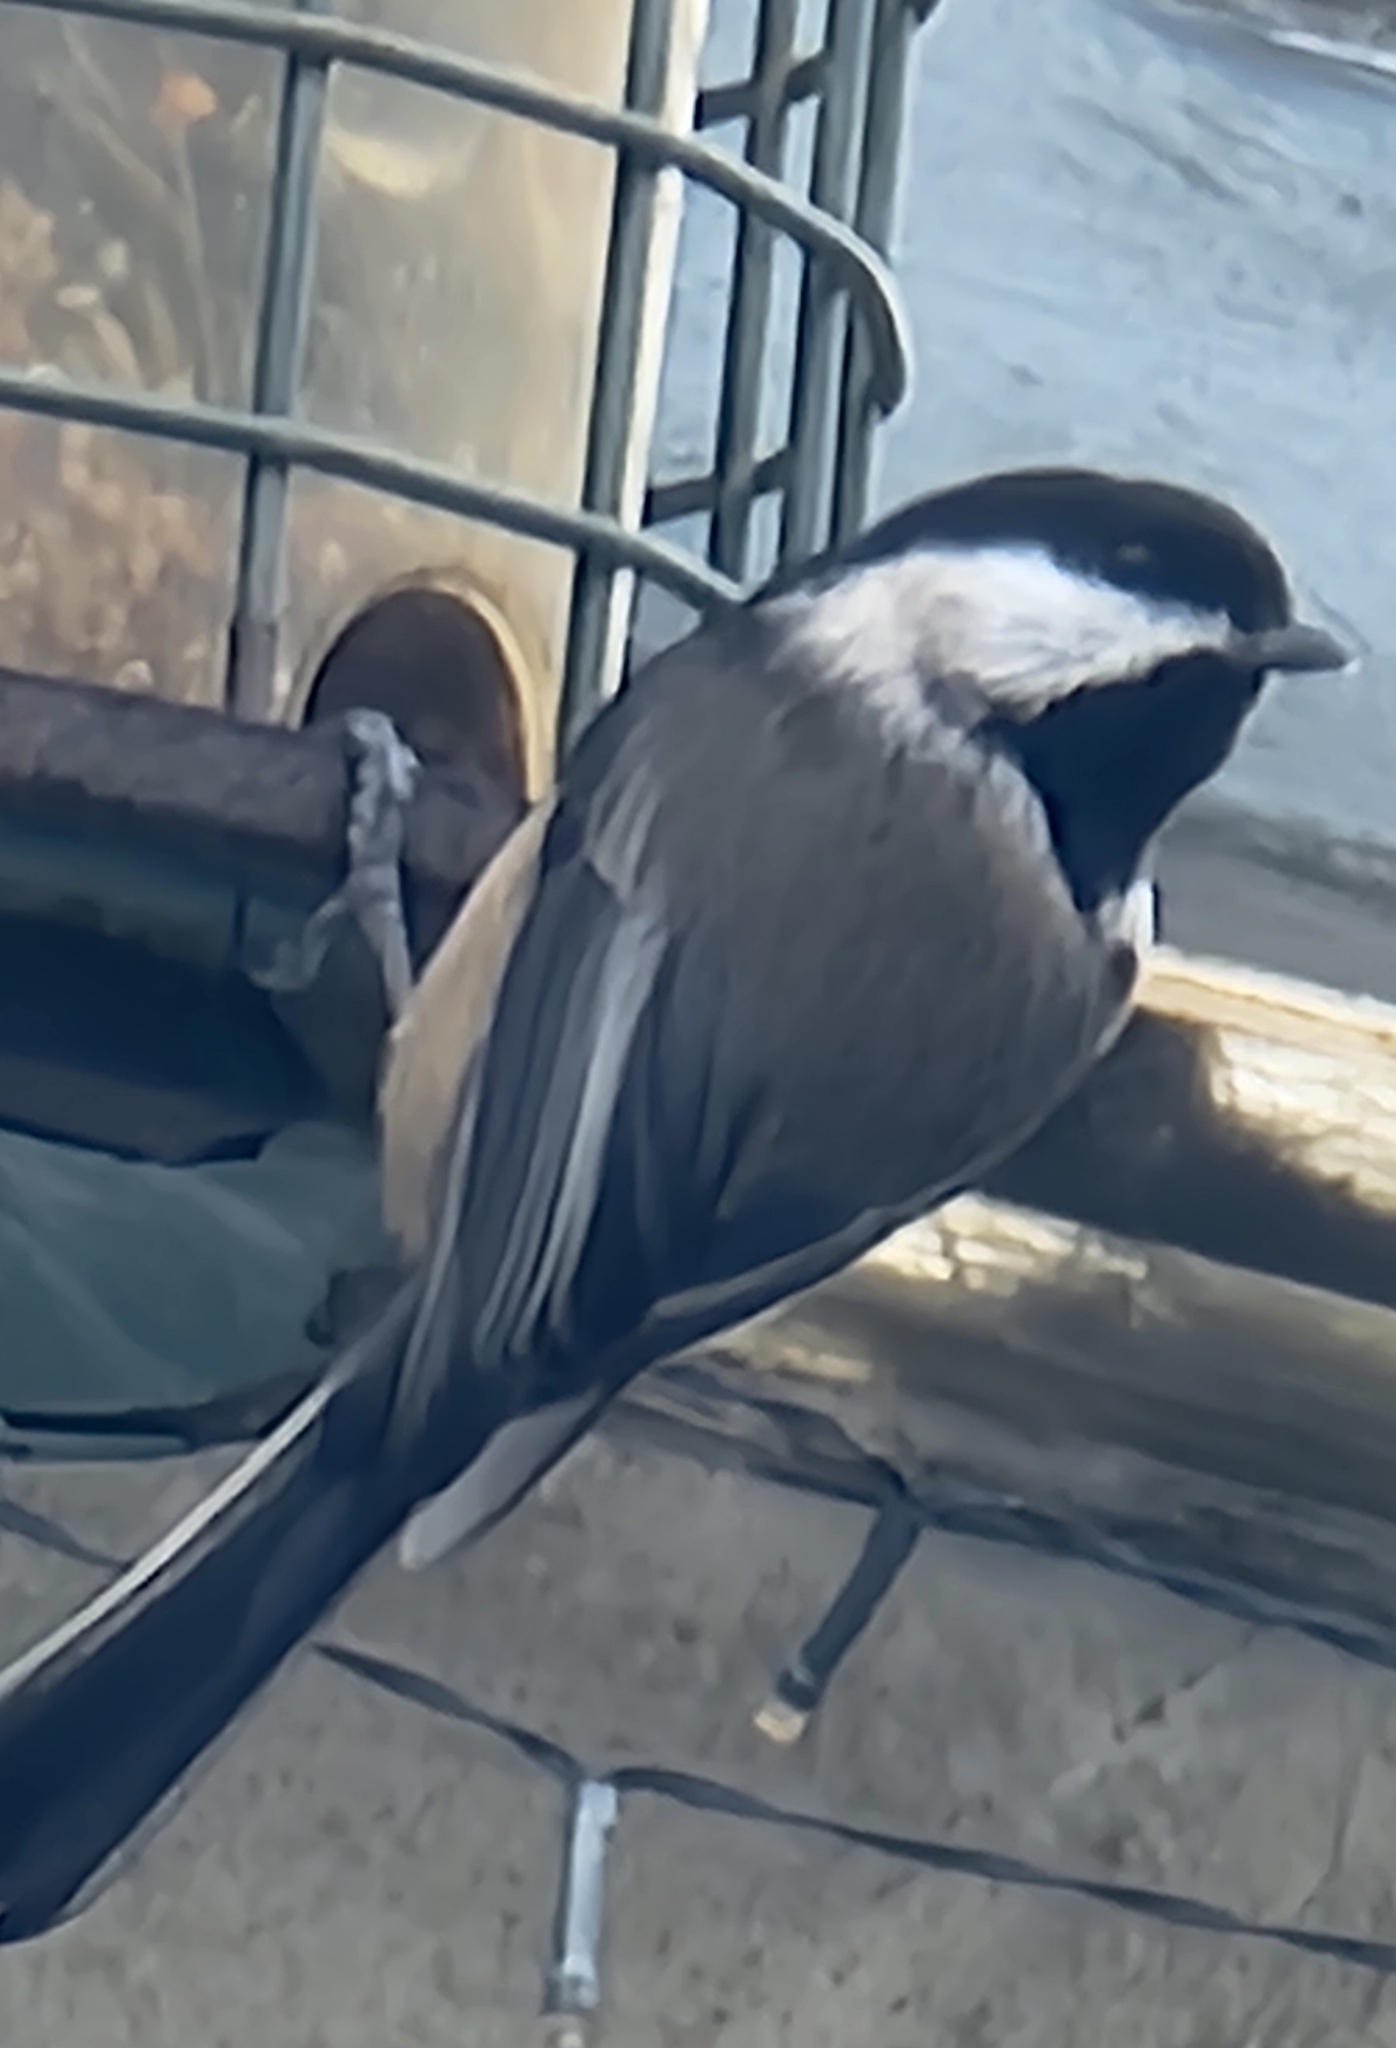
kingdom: Animalia
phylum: Chordata
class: Aves
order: Passeriformes
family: Paridae
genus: Poecile
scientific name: Poecile atricapillus
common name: Black-capped chickadee
